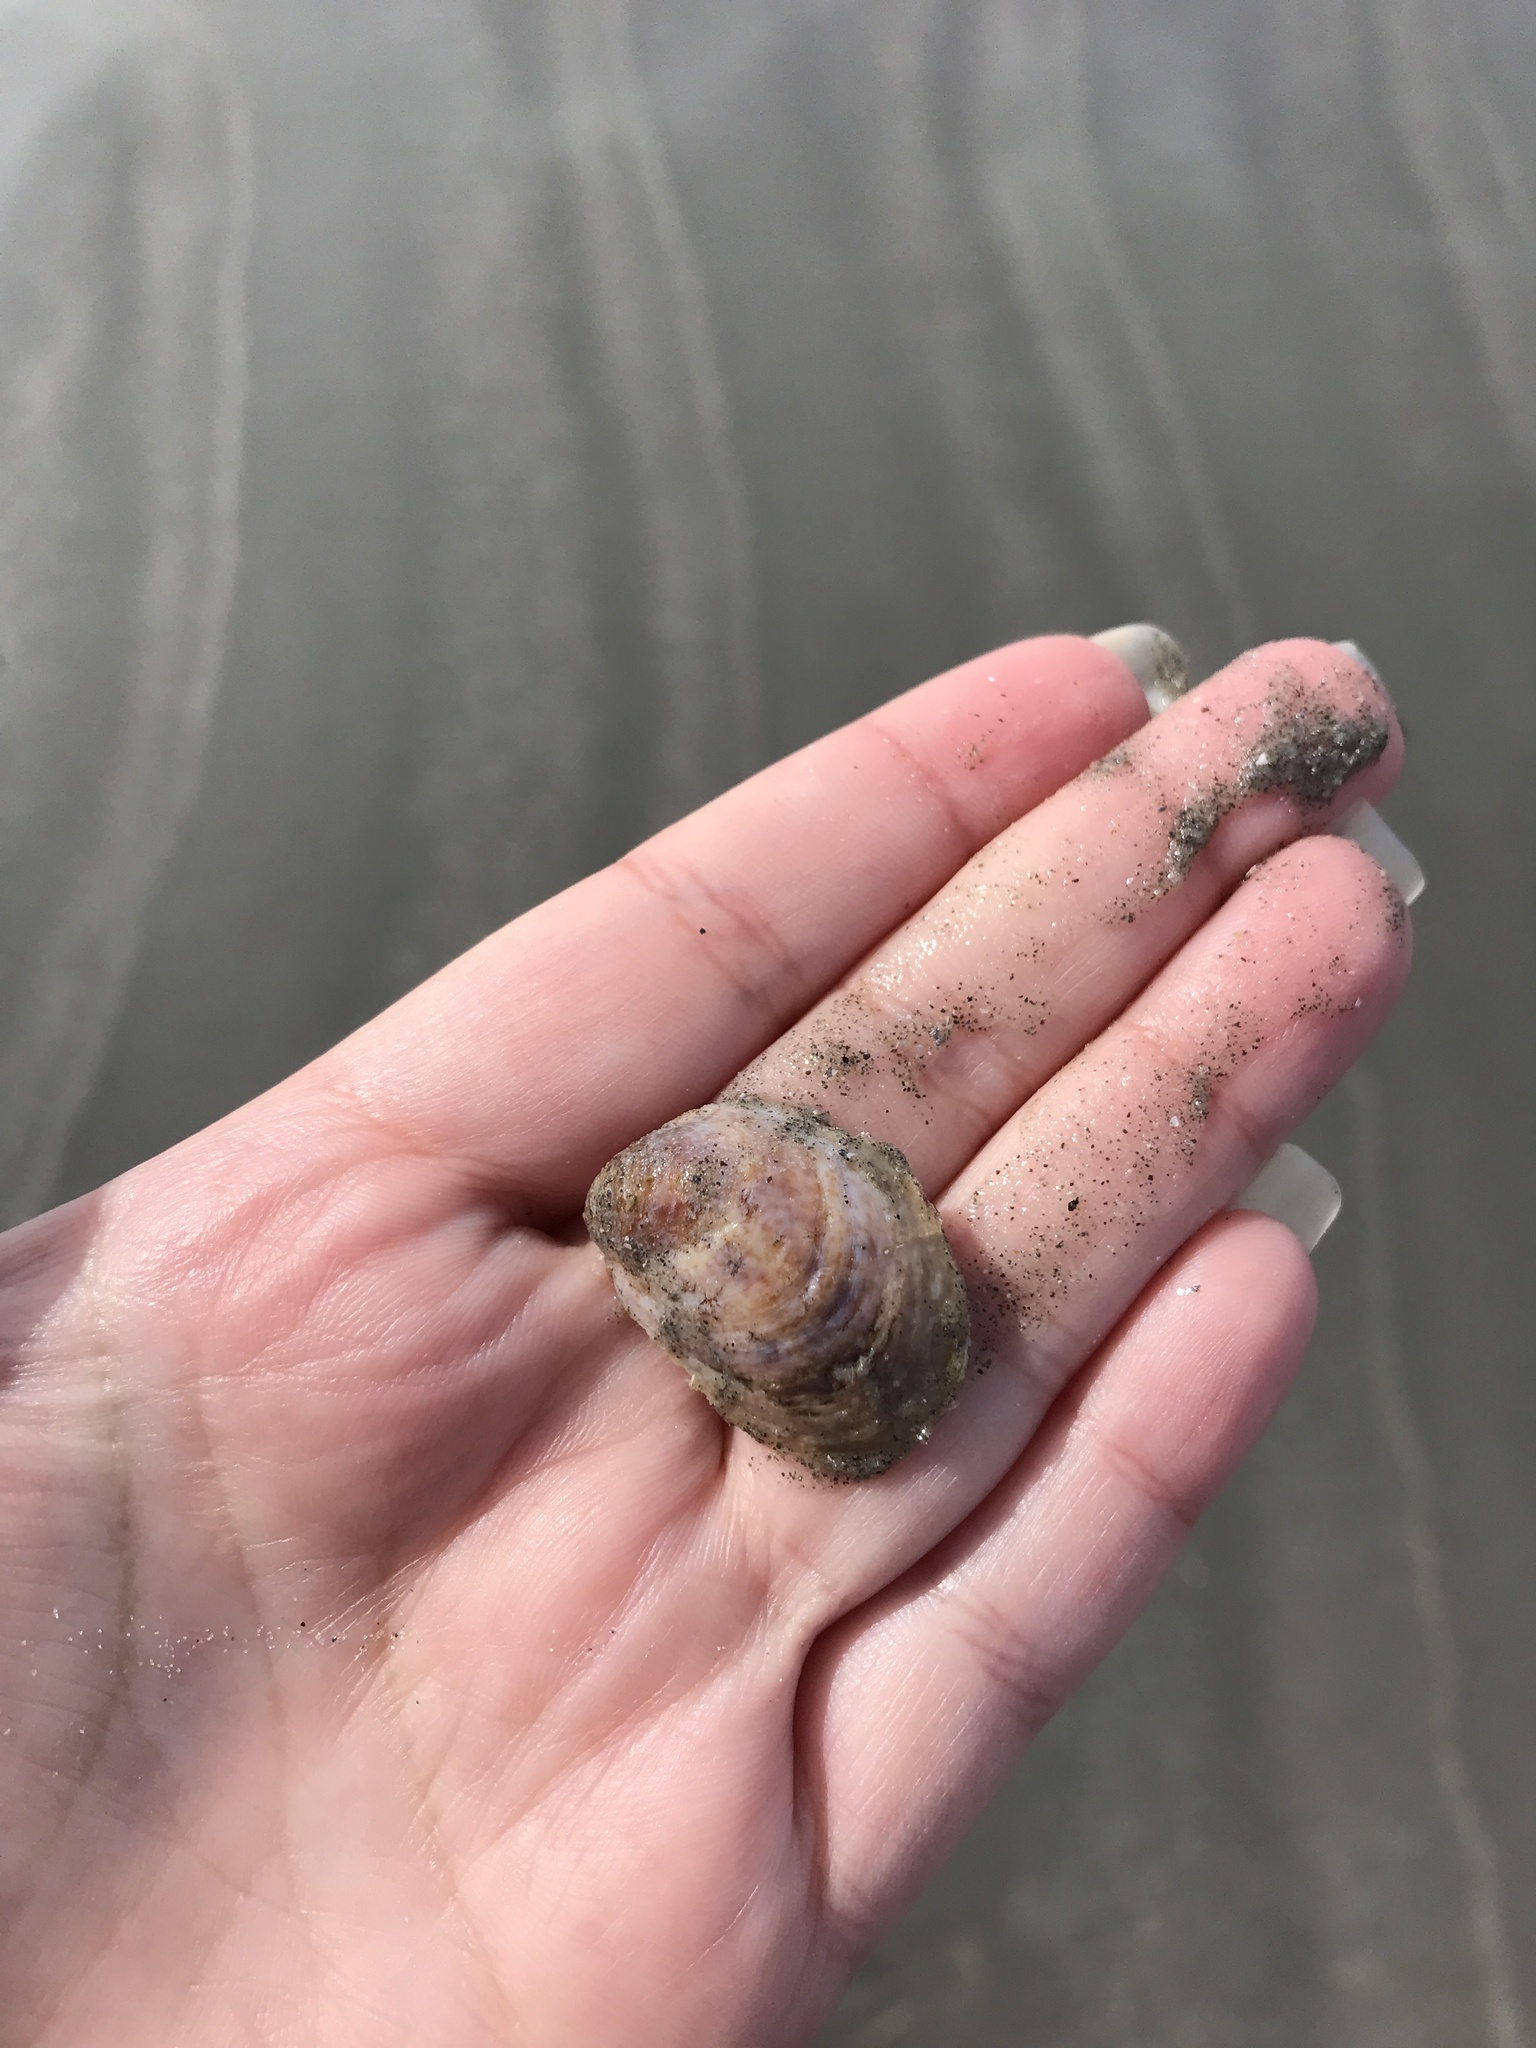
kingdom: Animalia
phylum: Mollusca
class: Gastropoda
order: Littorinimorpha
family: Calyptraeidae
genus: Crepidula
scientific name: Crepidula fornicata
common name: Slipper limpet
